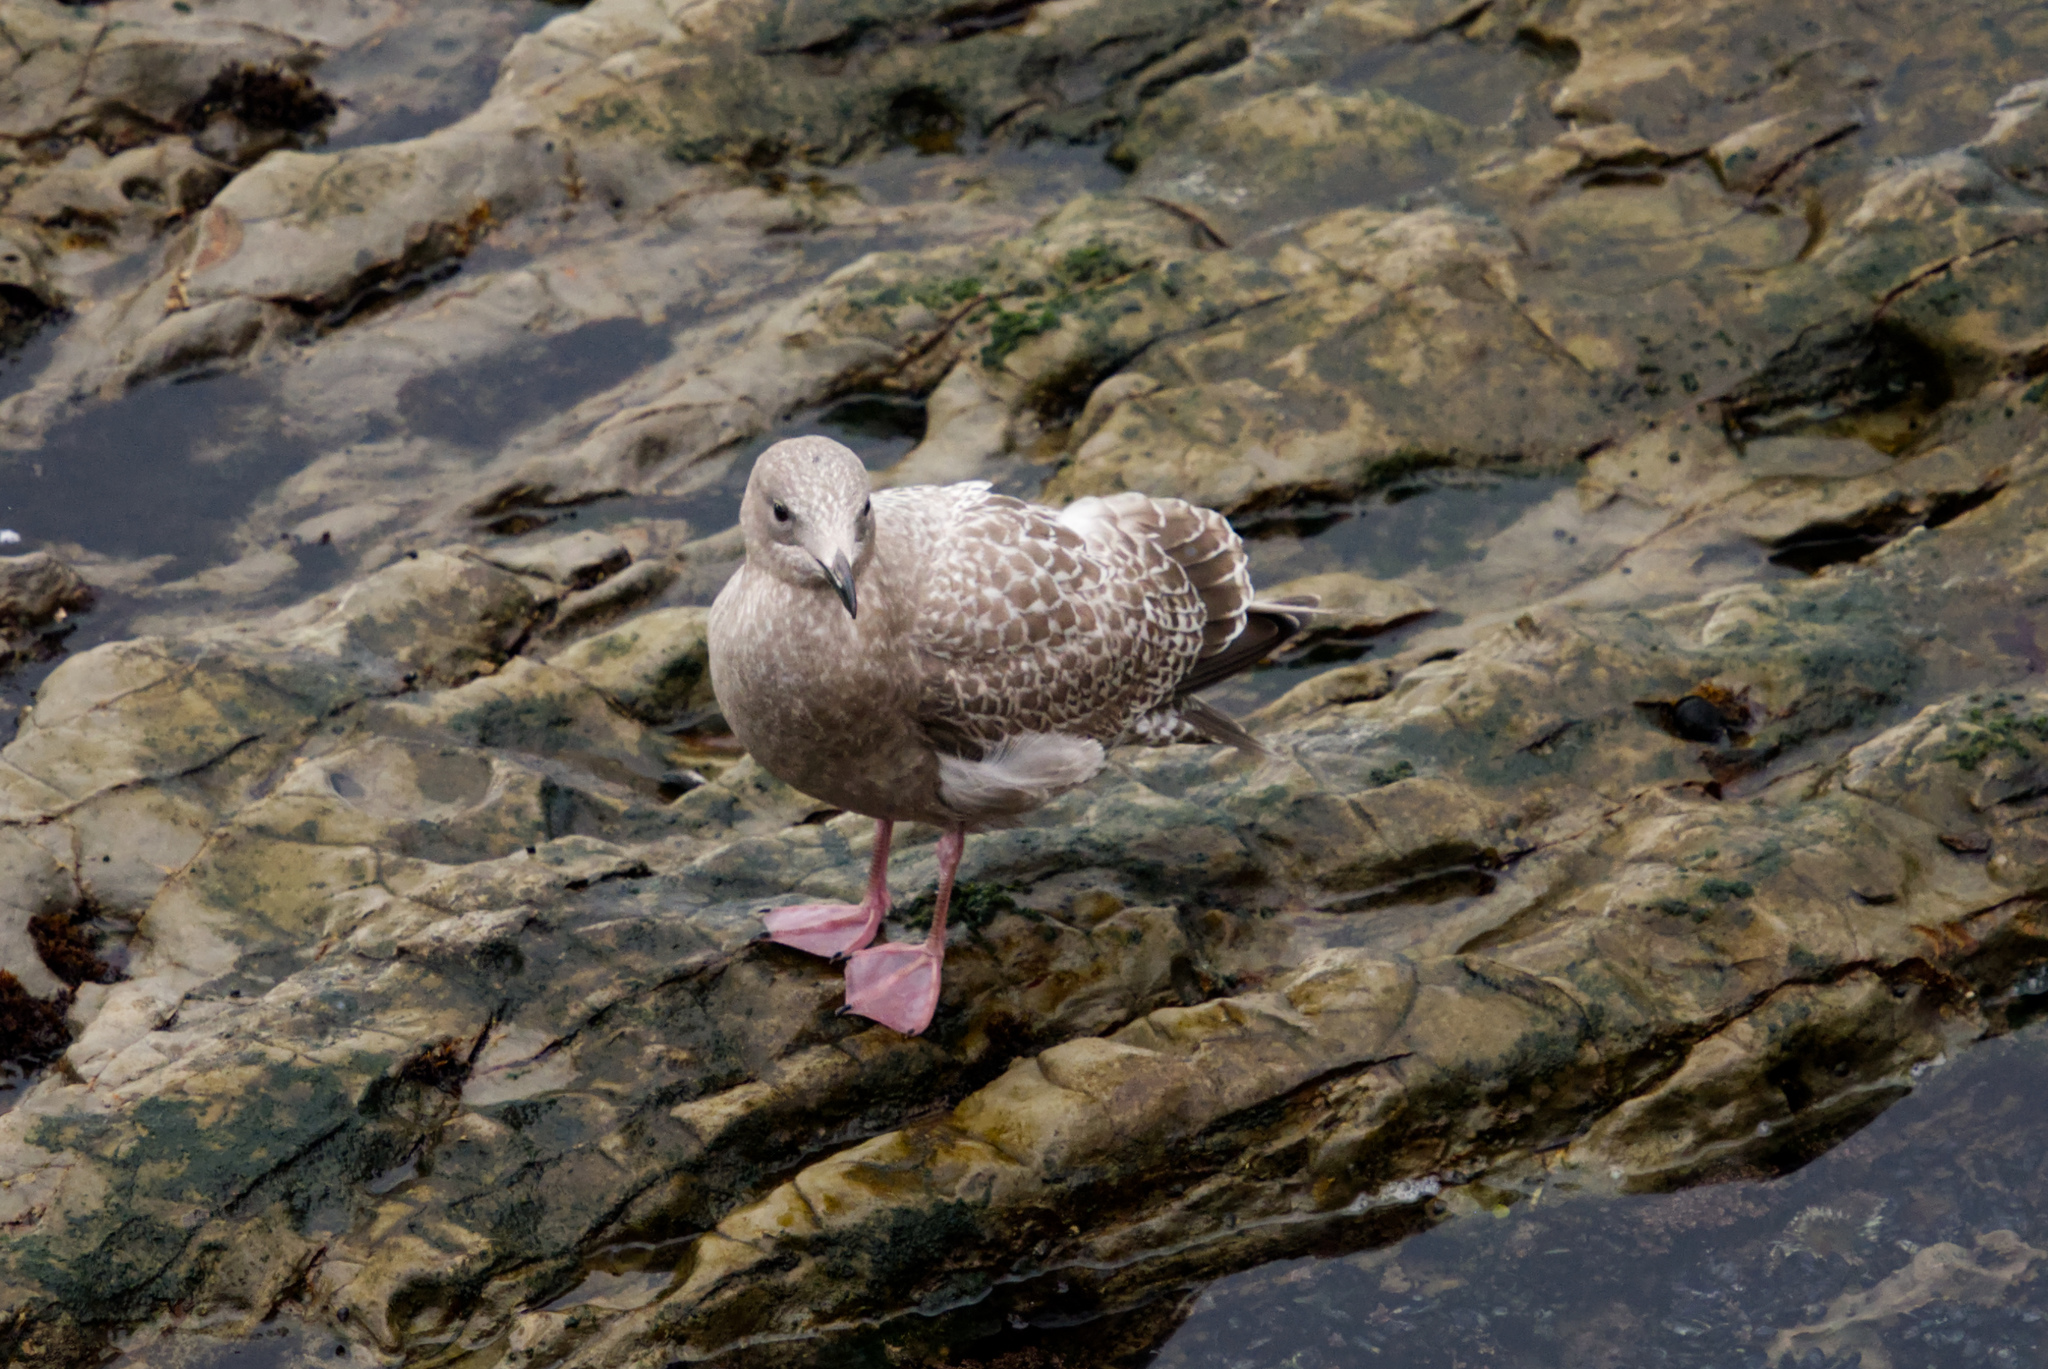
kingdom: Animalia
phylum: Chordata
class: Aves
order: Charadriiformes
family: Laridae
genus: Larus
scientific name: Larus occidentalis
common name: Western gull
